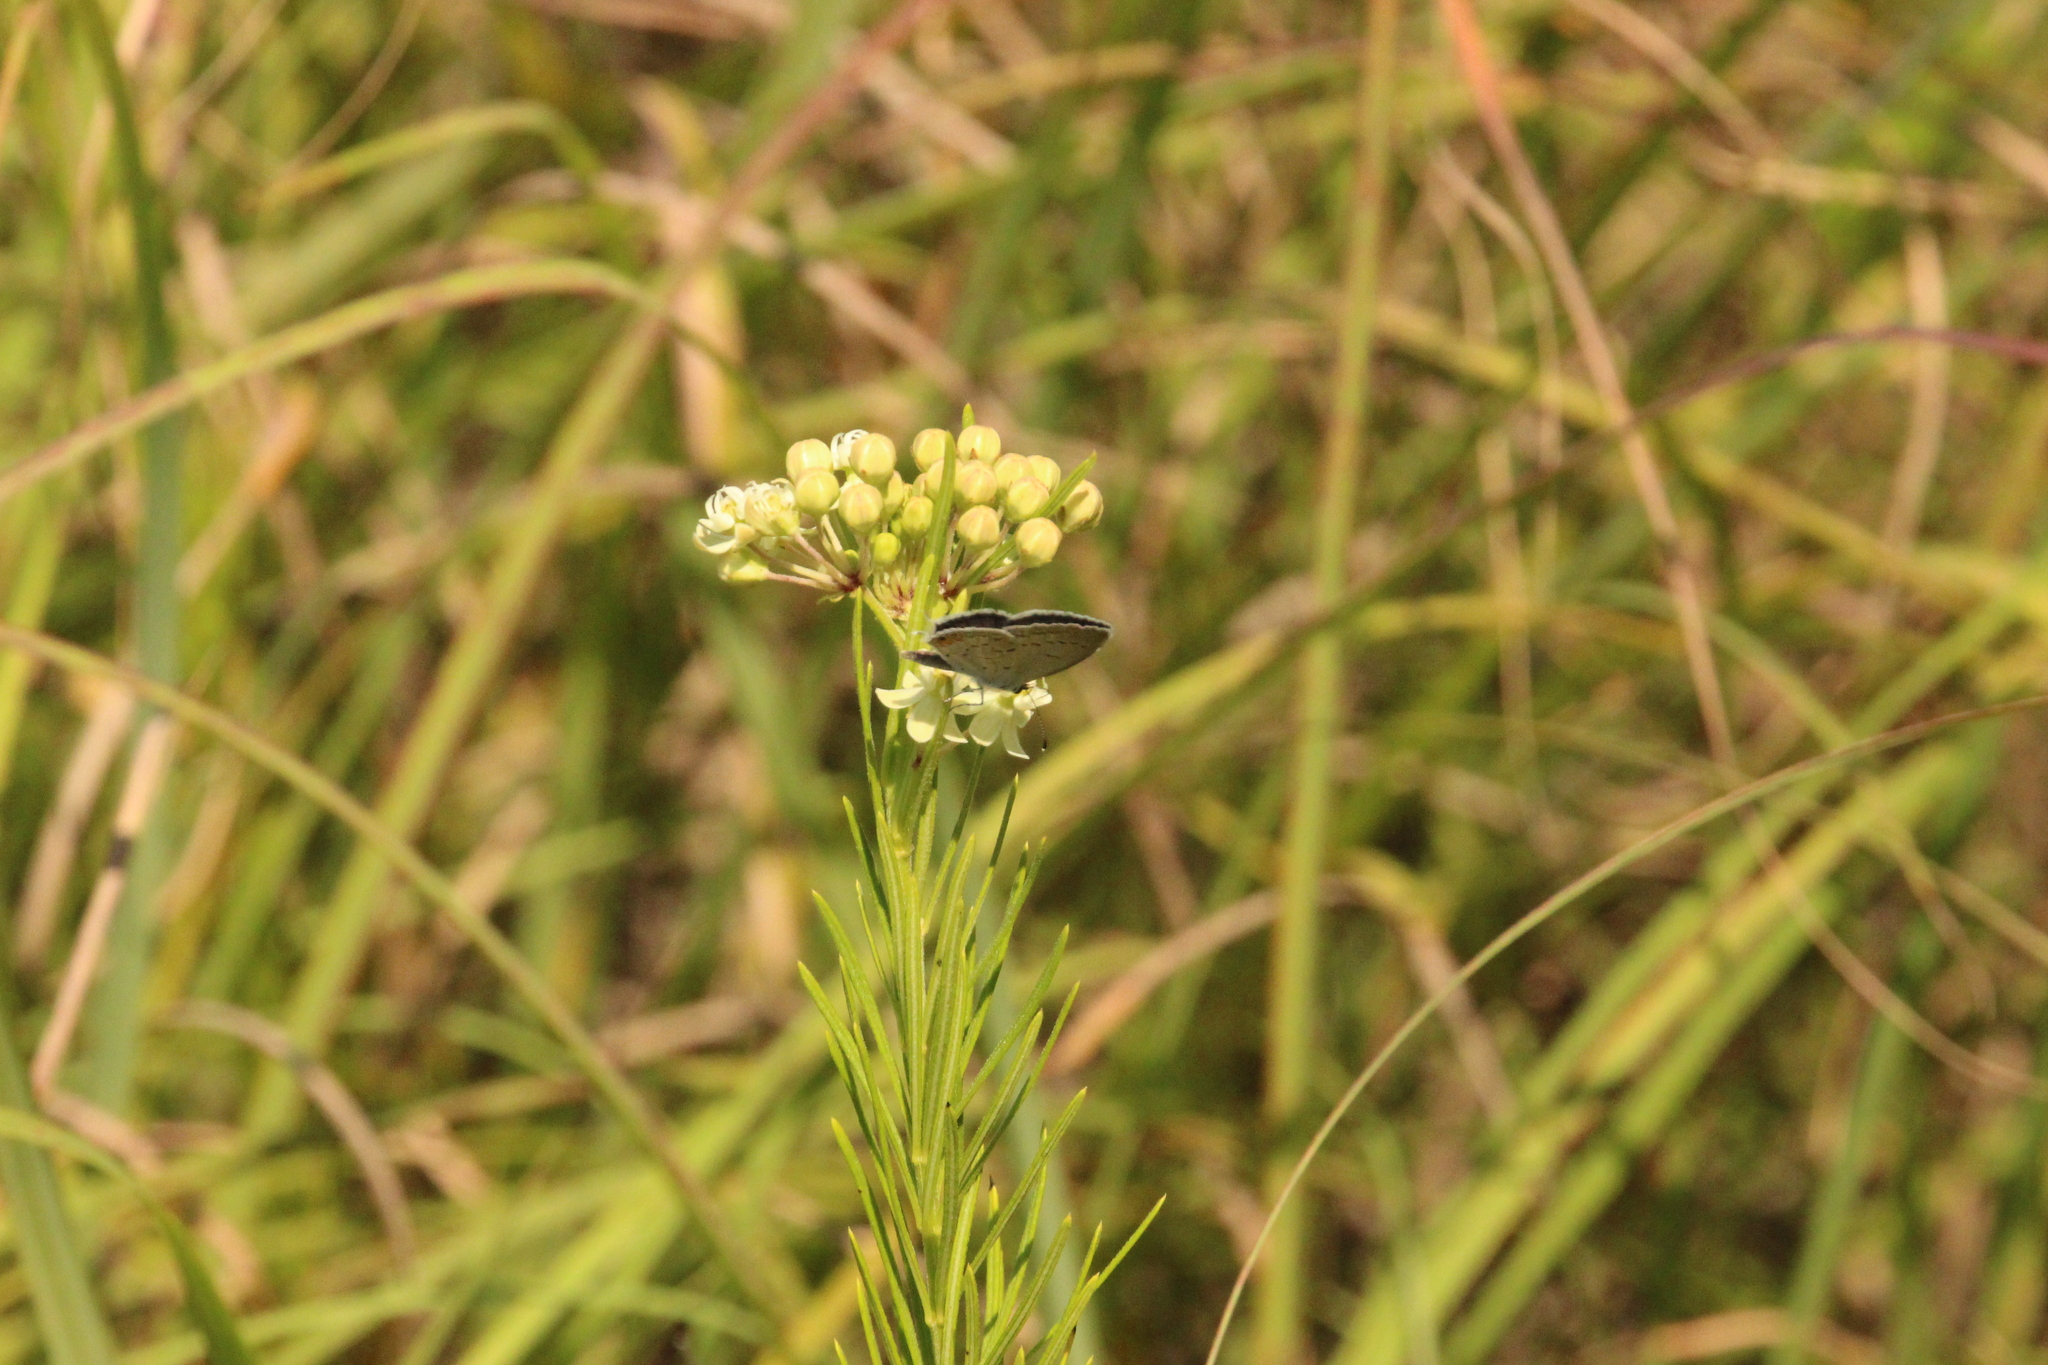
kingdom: Animalia
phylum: Arthropoda
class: Insecta
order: Lepidoptera
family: Lycaenidae
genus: Elkalyce
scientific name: Elkalyce comyntas
